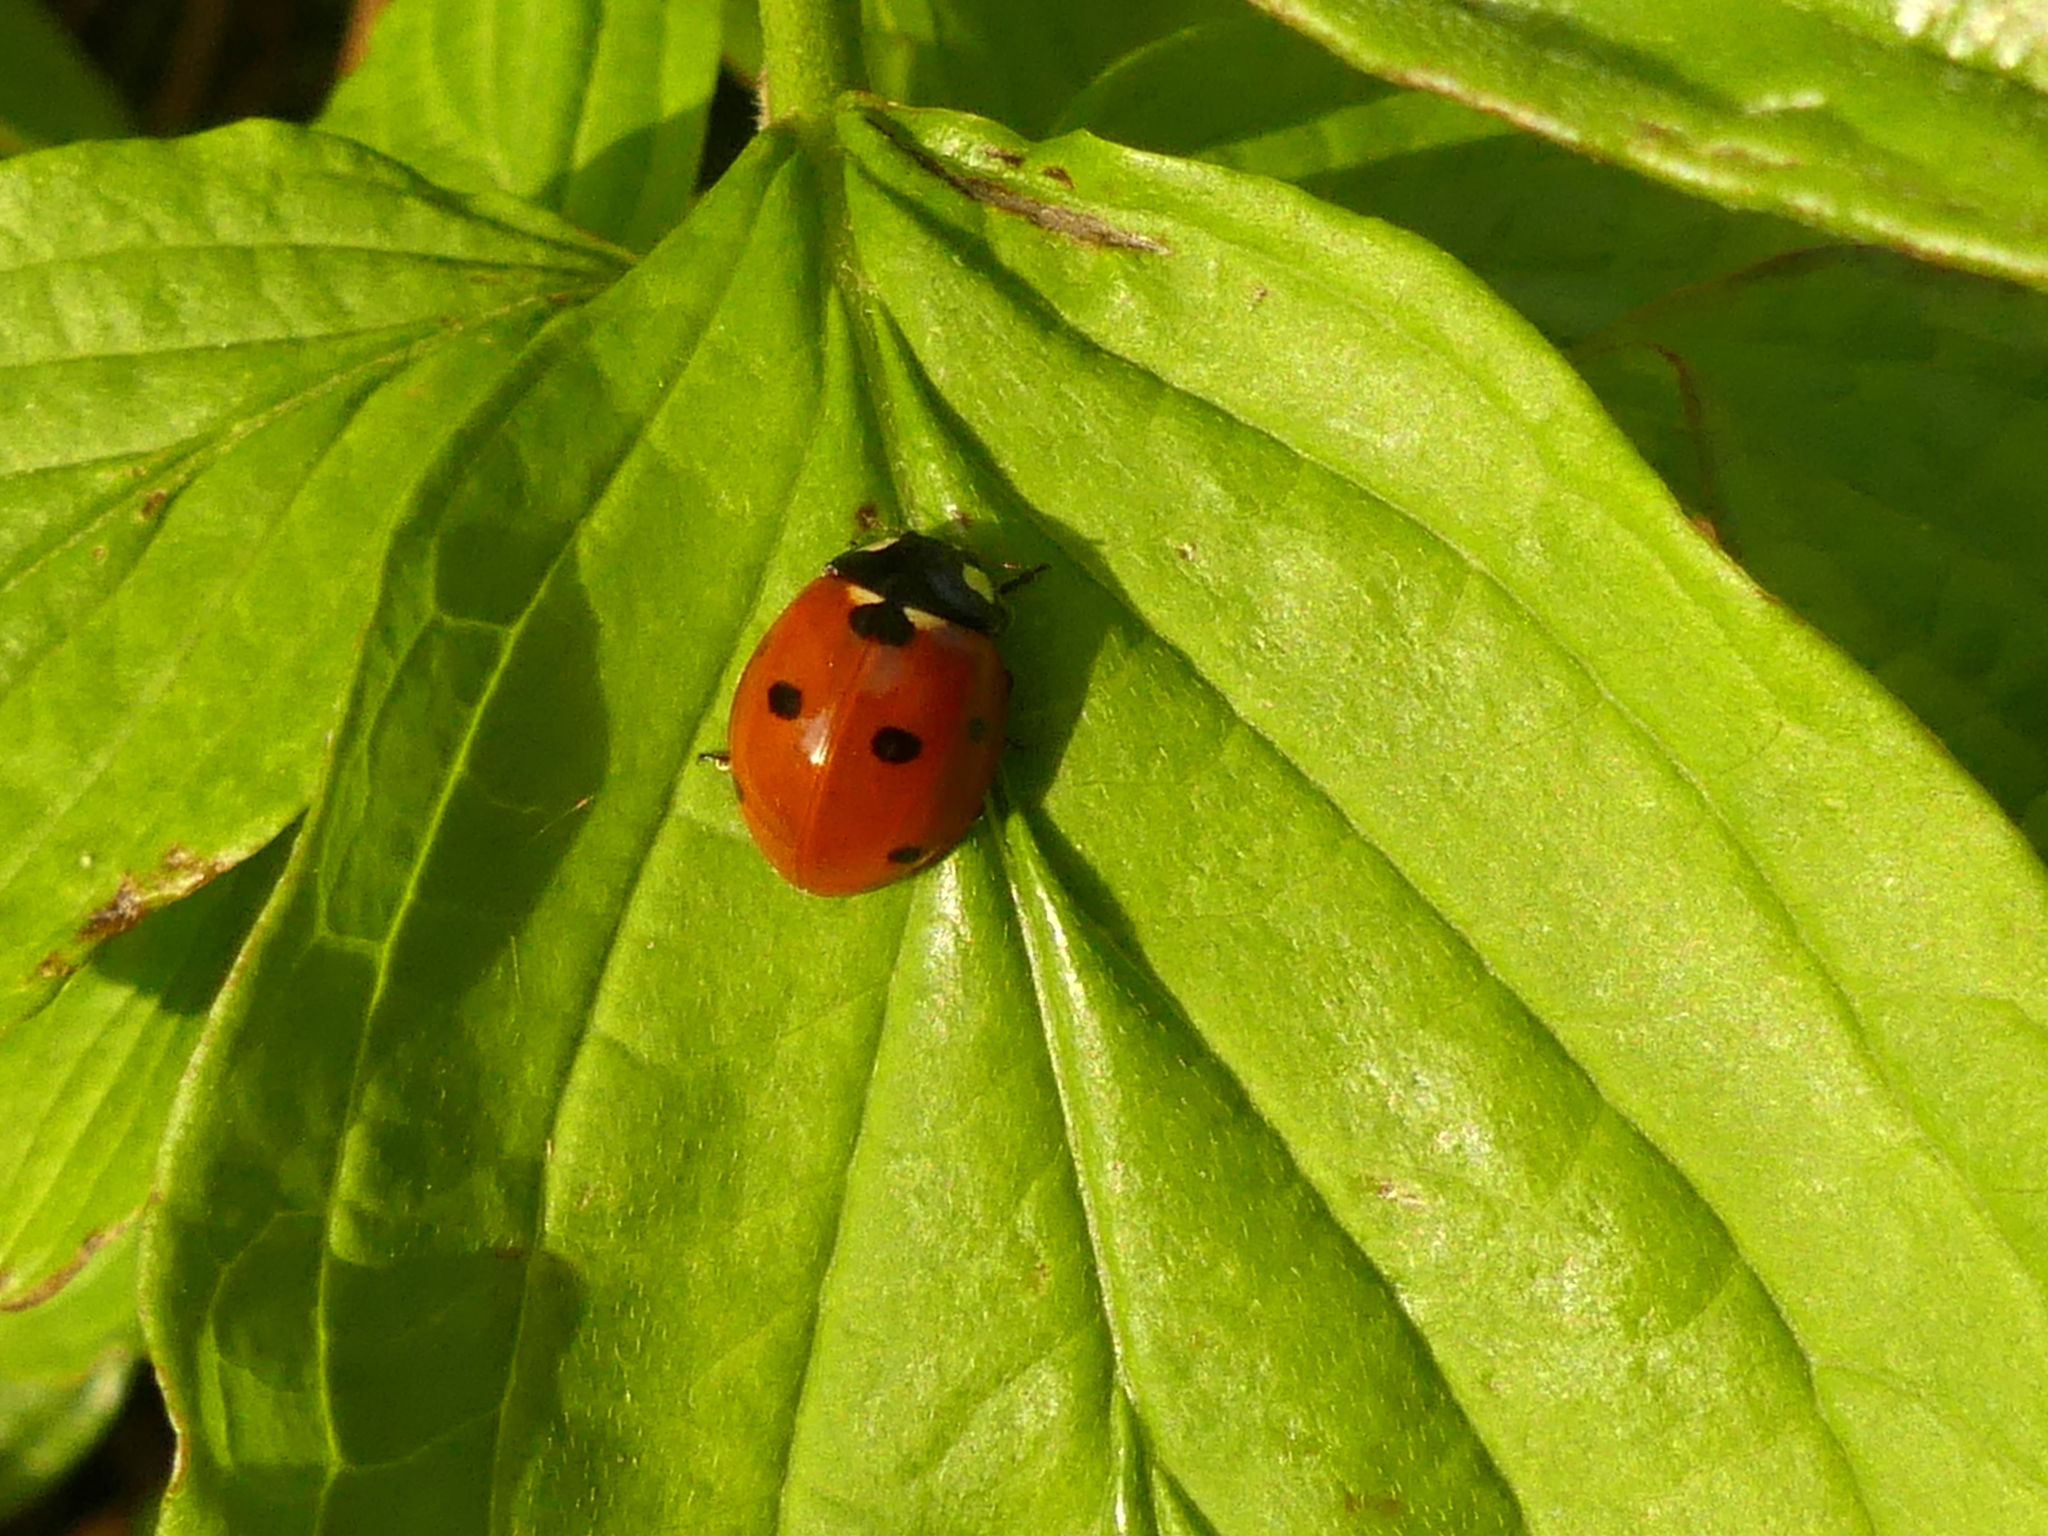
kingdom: Animalia
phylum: Arthropoda
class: Insecta
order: Coleoptera
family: Coccinellidae
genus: Coccinella
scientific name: Coccinella septempunctata
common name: Sevenspotted lady beetle
